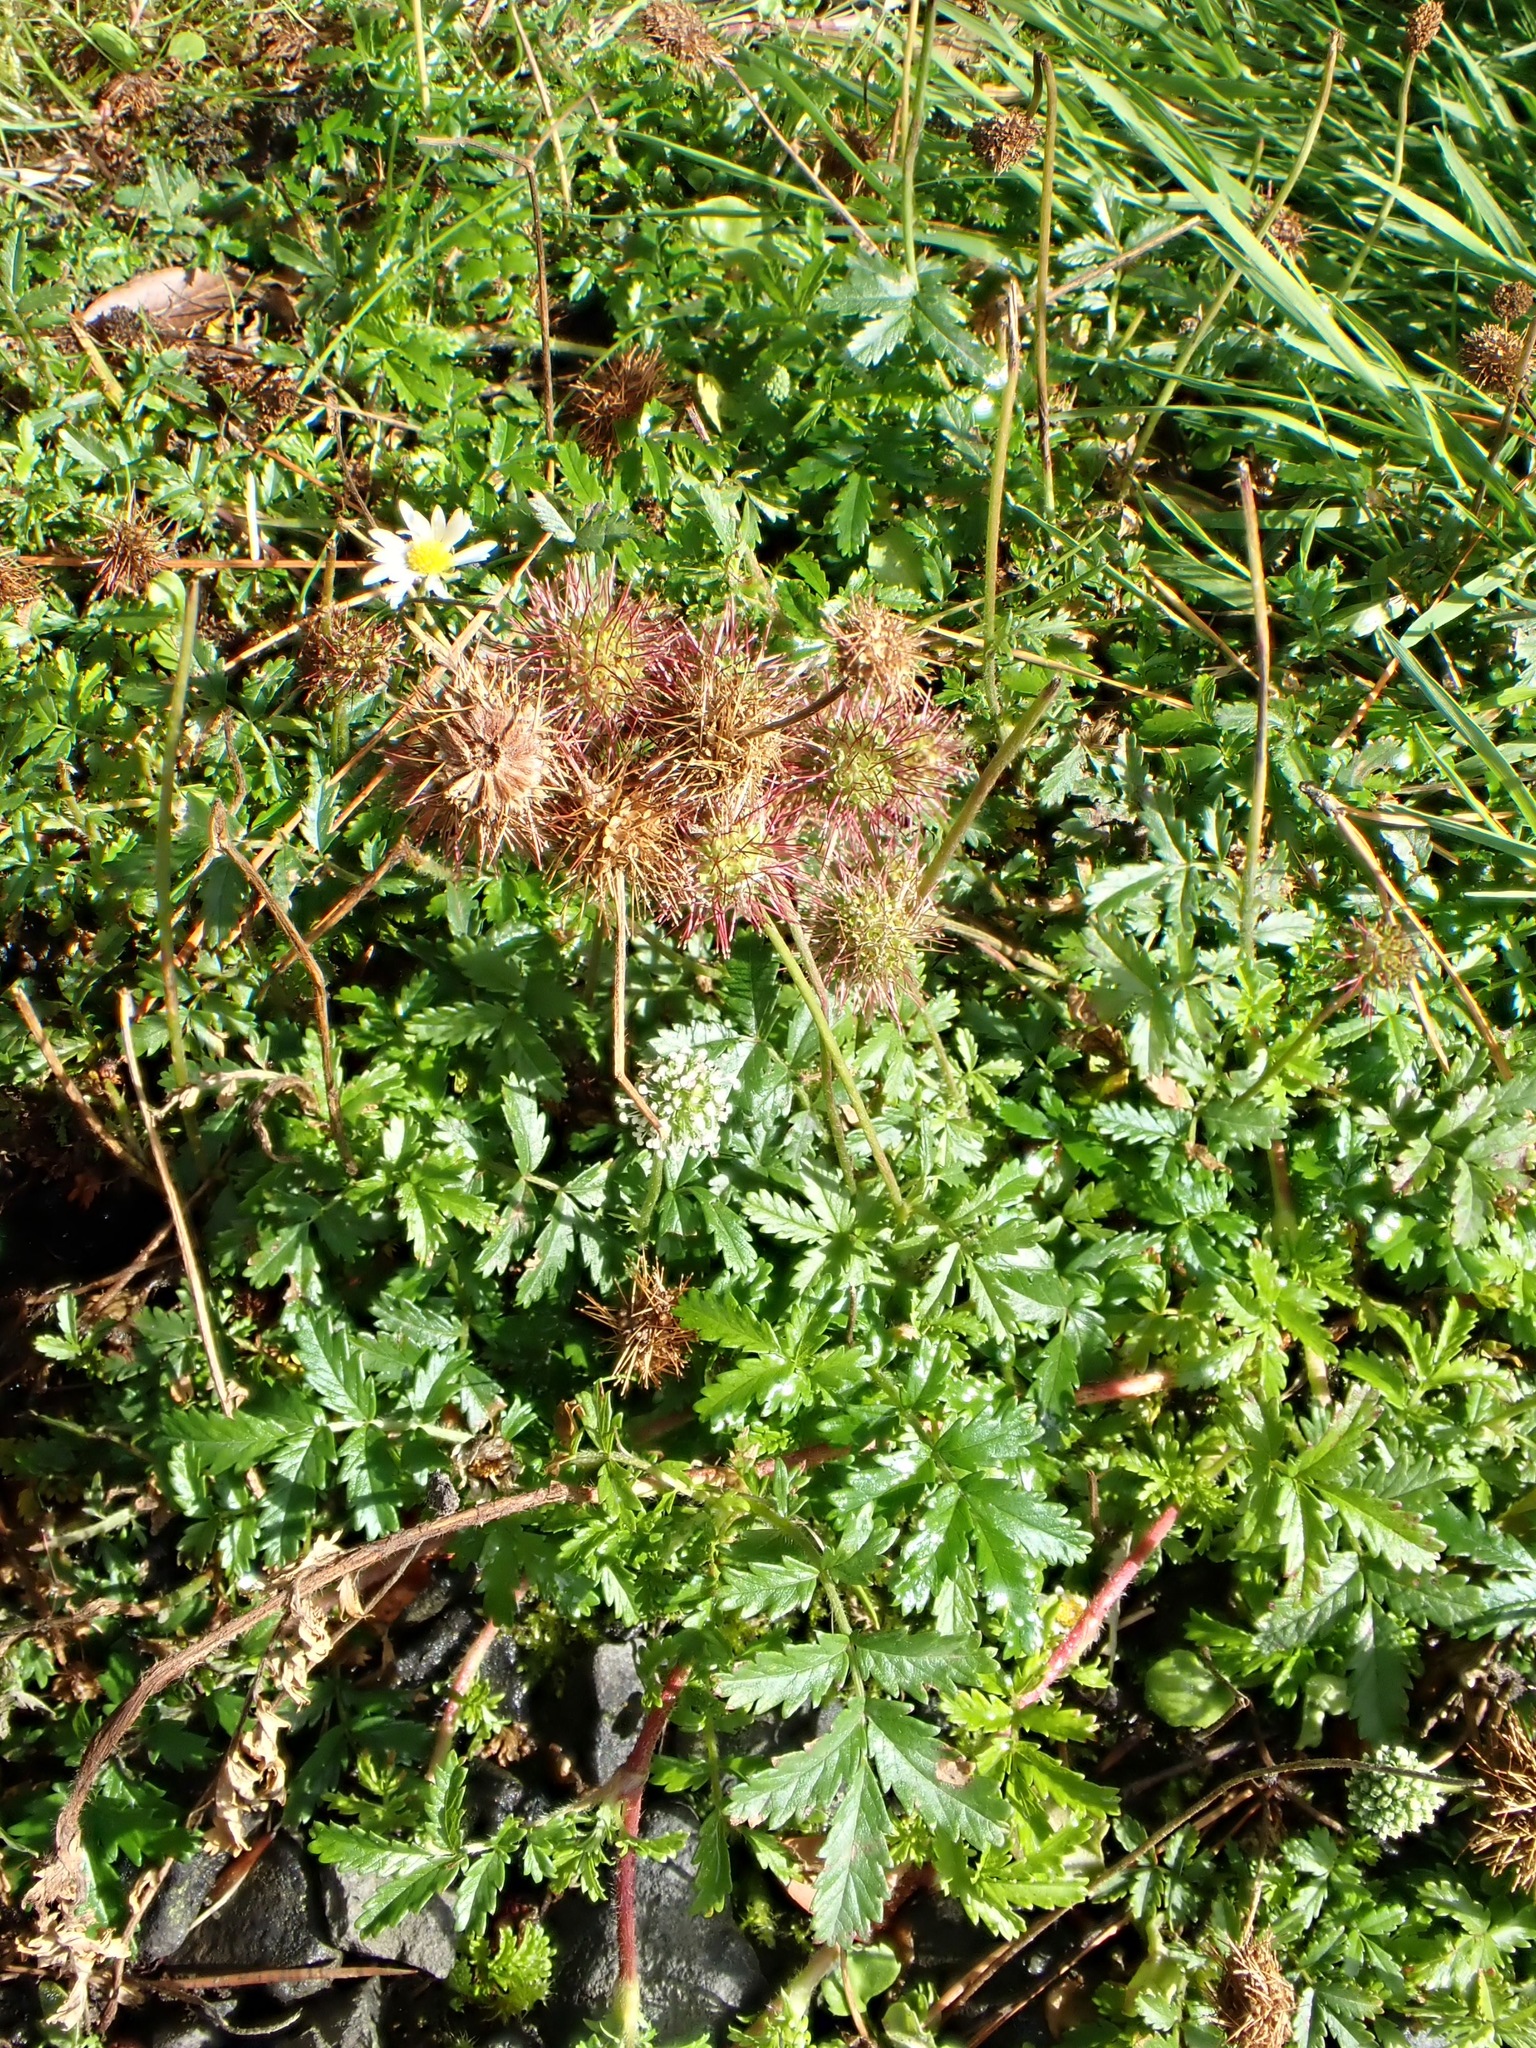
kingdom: Plantae
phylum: Tracheophyta
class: Magnoliopsida
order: Rosales
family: Rosaceae
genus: Acaena
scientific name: Acaena novae-zelandiae
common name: Pirri-pirri-bur
